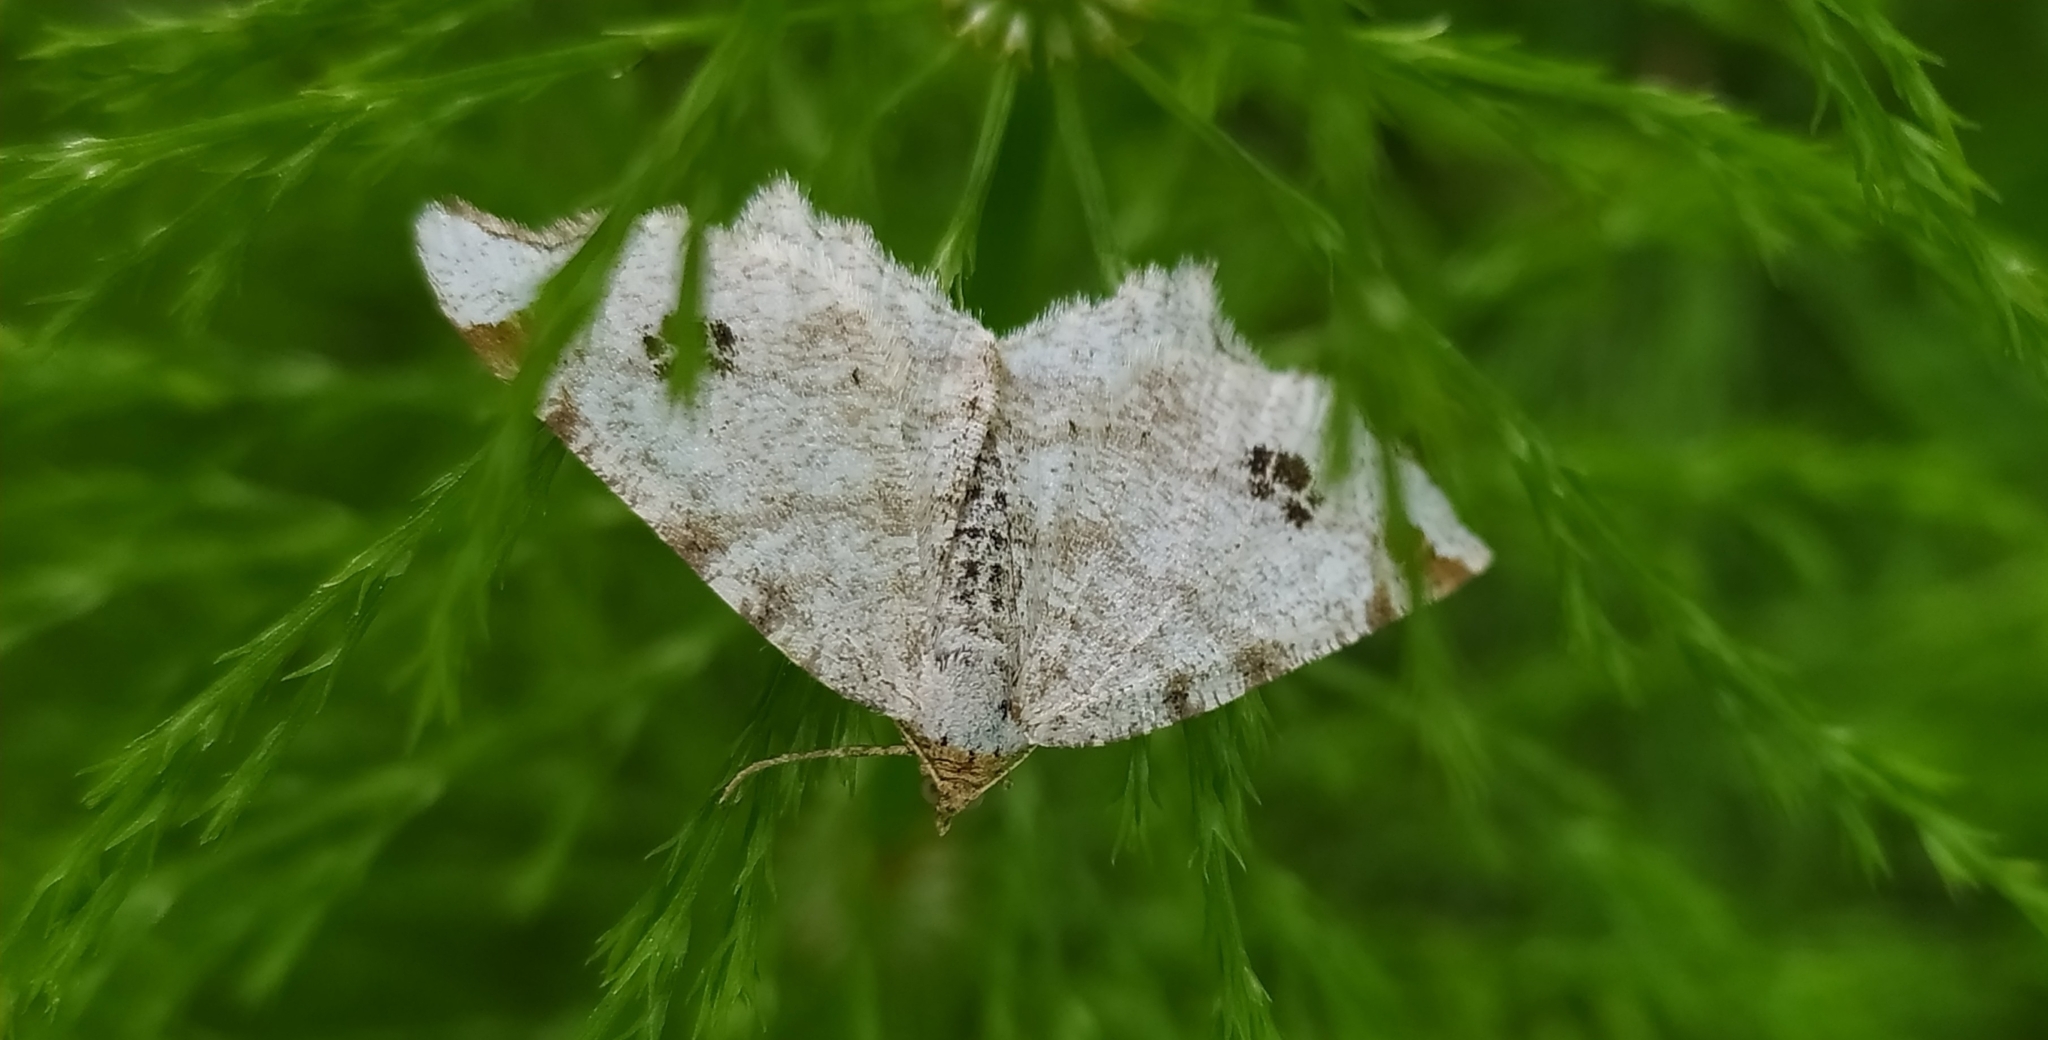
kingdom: Animalia
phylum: Arthropoda
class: Insecta
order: Lepidoptera
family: Geometridae
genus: Macaria
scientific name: Macaria notata
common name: Peacock moth
